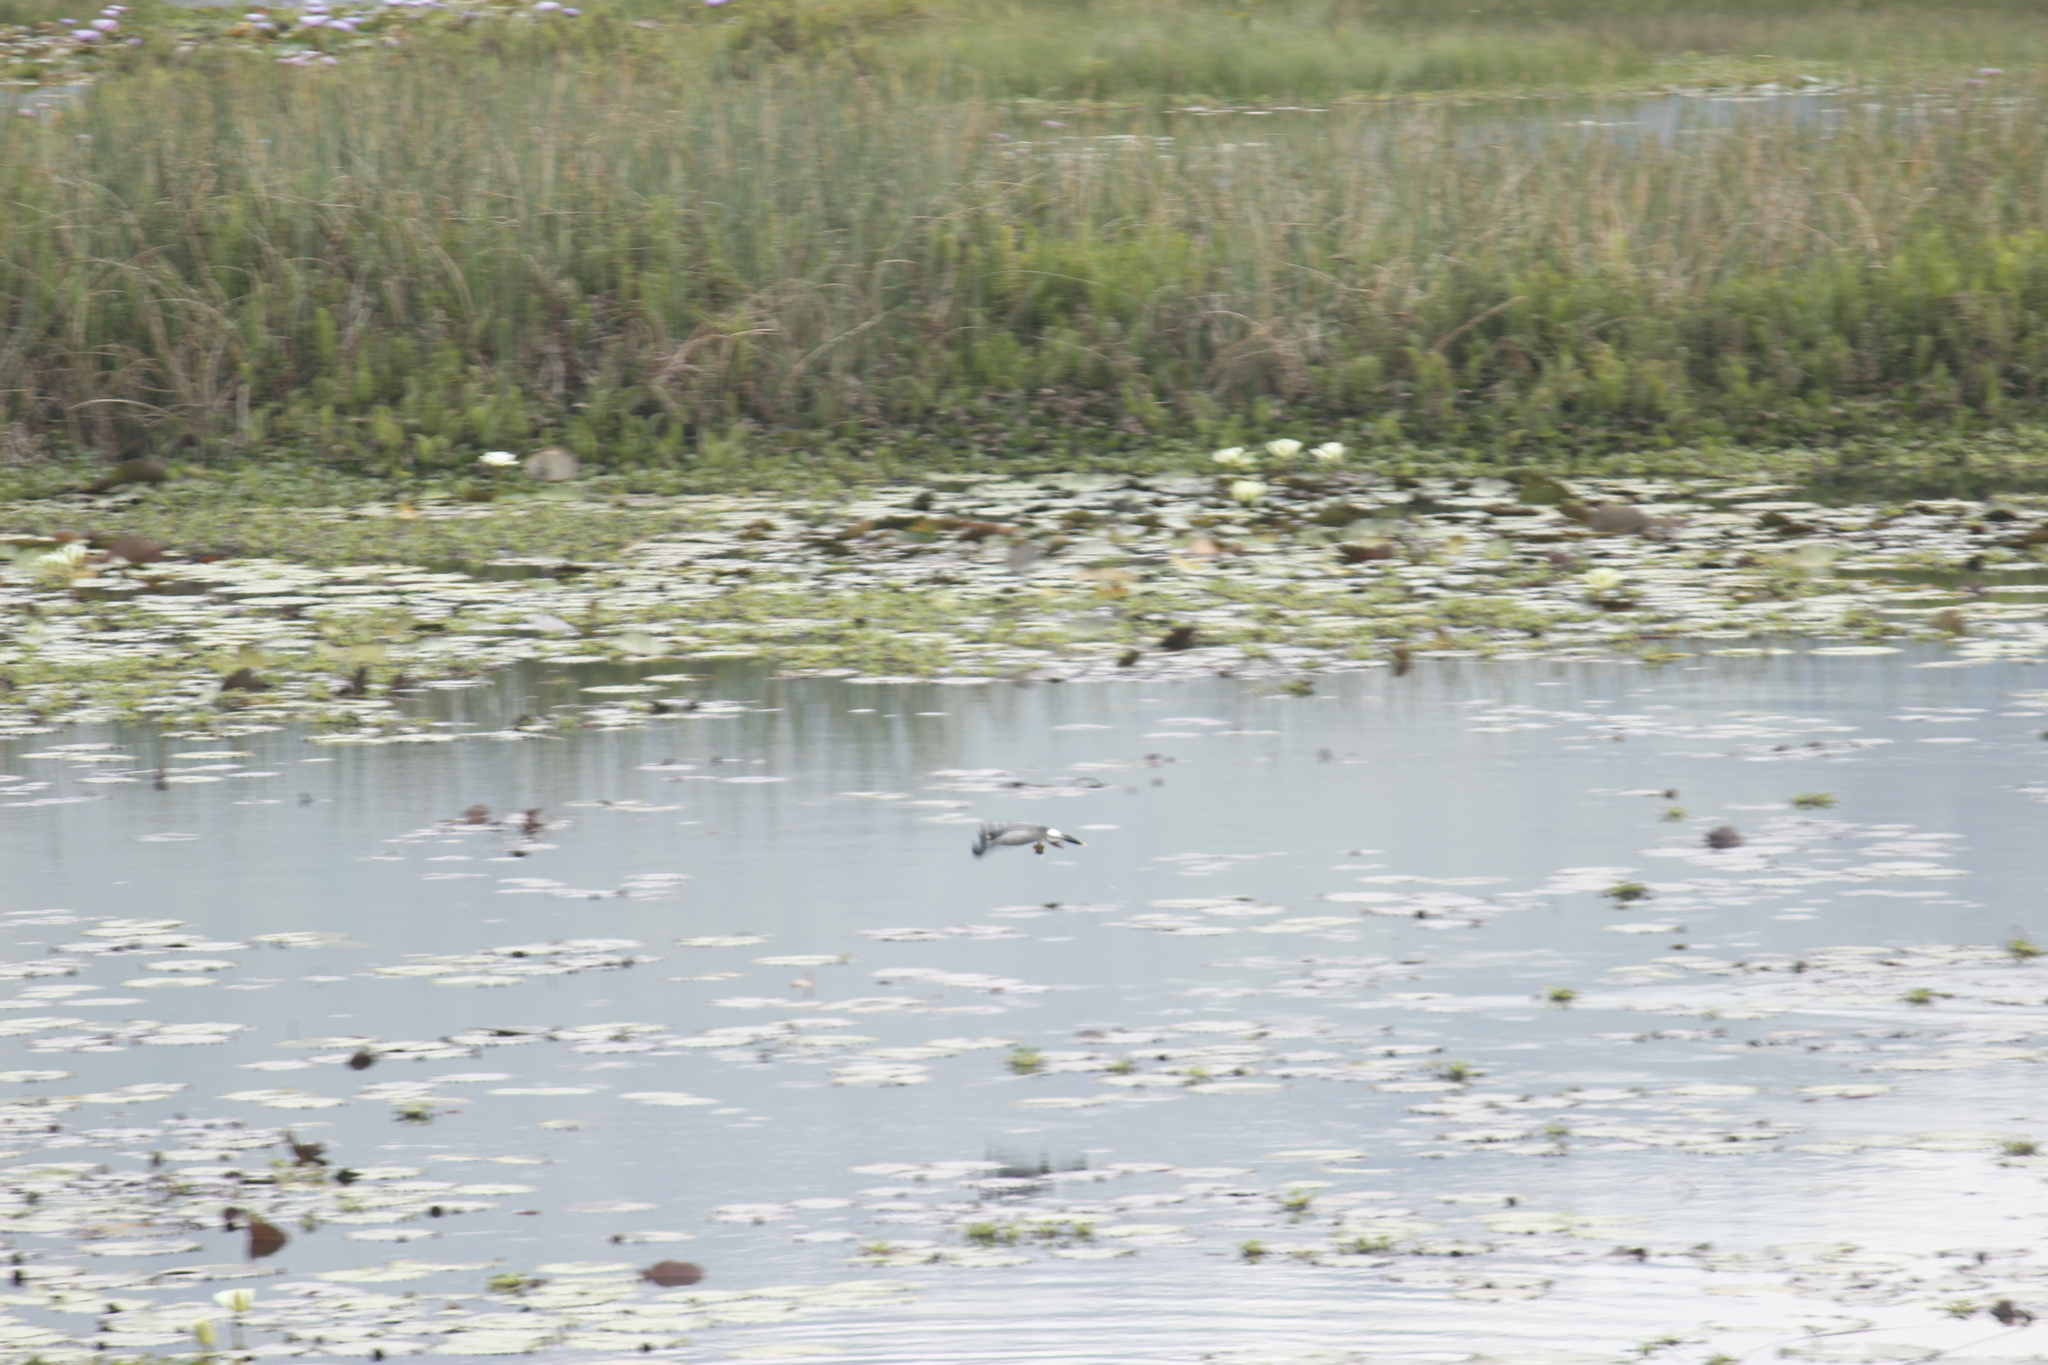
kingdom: Animalia
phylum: Chordata
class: Aves
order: Accipitriformes
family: Accipitridae
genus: Rostrhamus
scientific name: Rostrhamus sociabilis
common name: Snail kite
